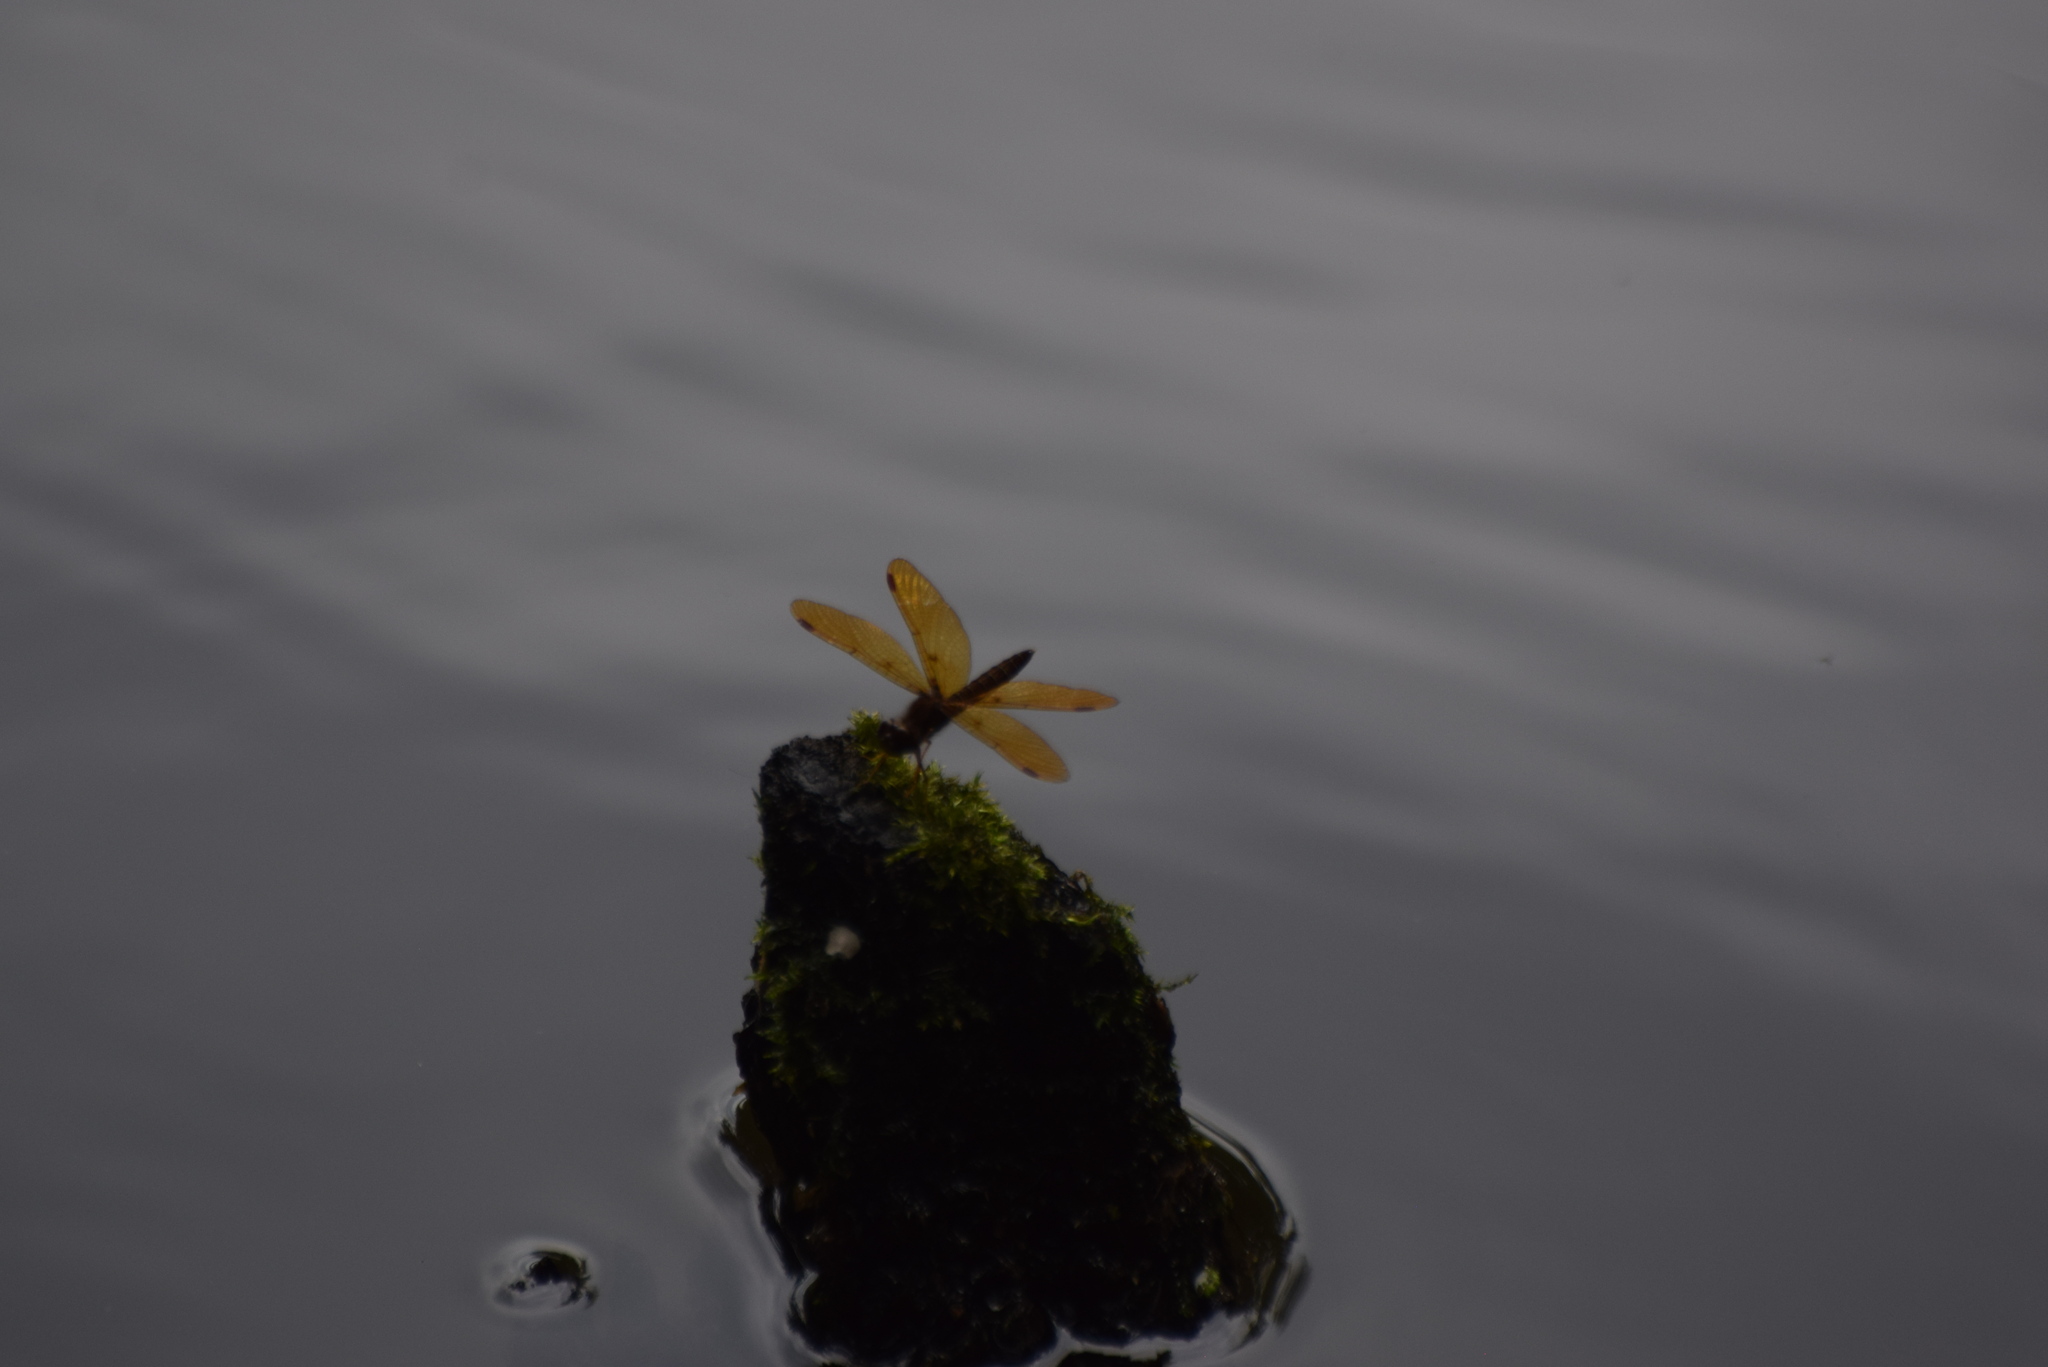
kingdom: Animalia
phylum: Arthropoda
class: Insecta
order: Odonata
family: Libellulidae
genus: Perithemis
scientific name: Perithemis tenera
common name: Eastern amberwing
